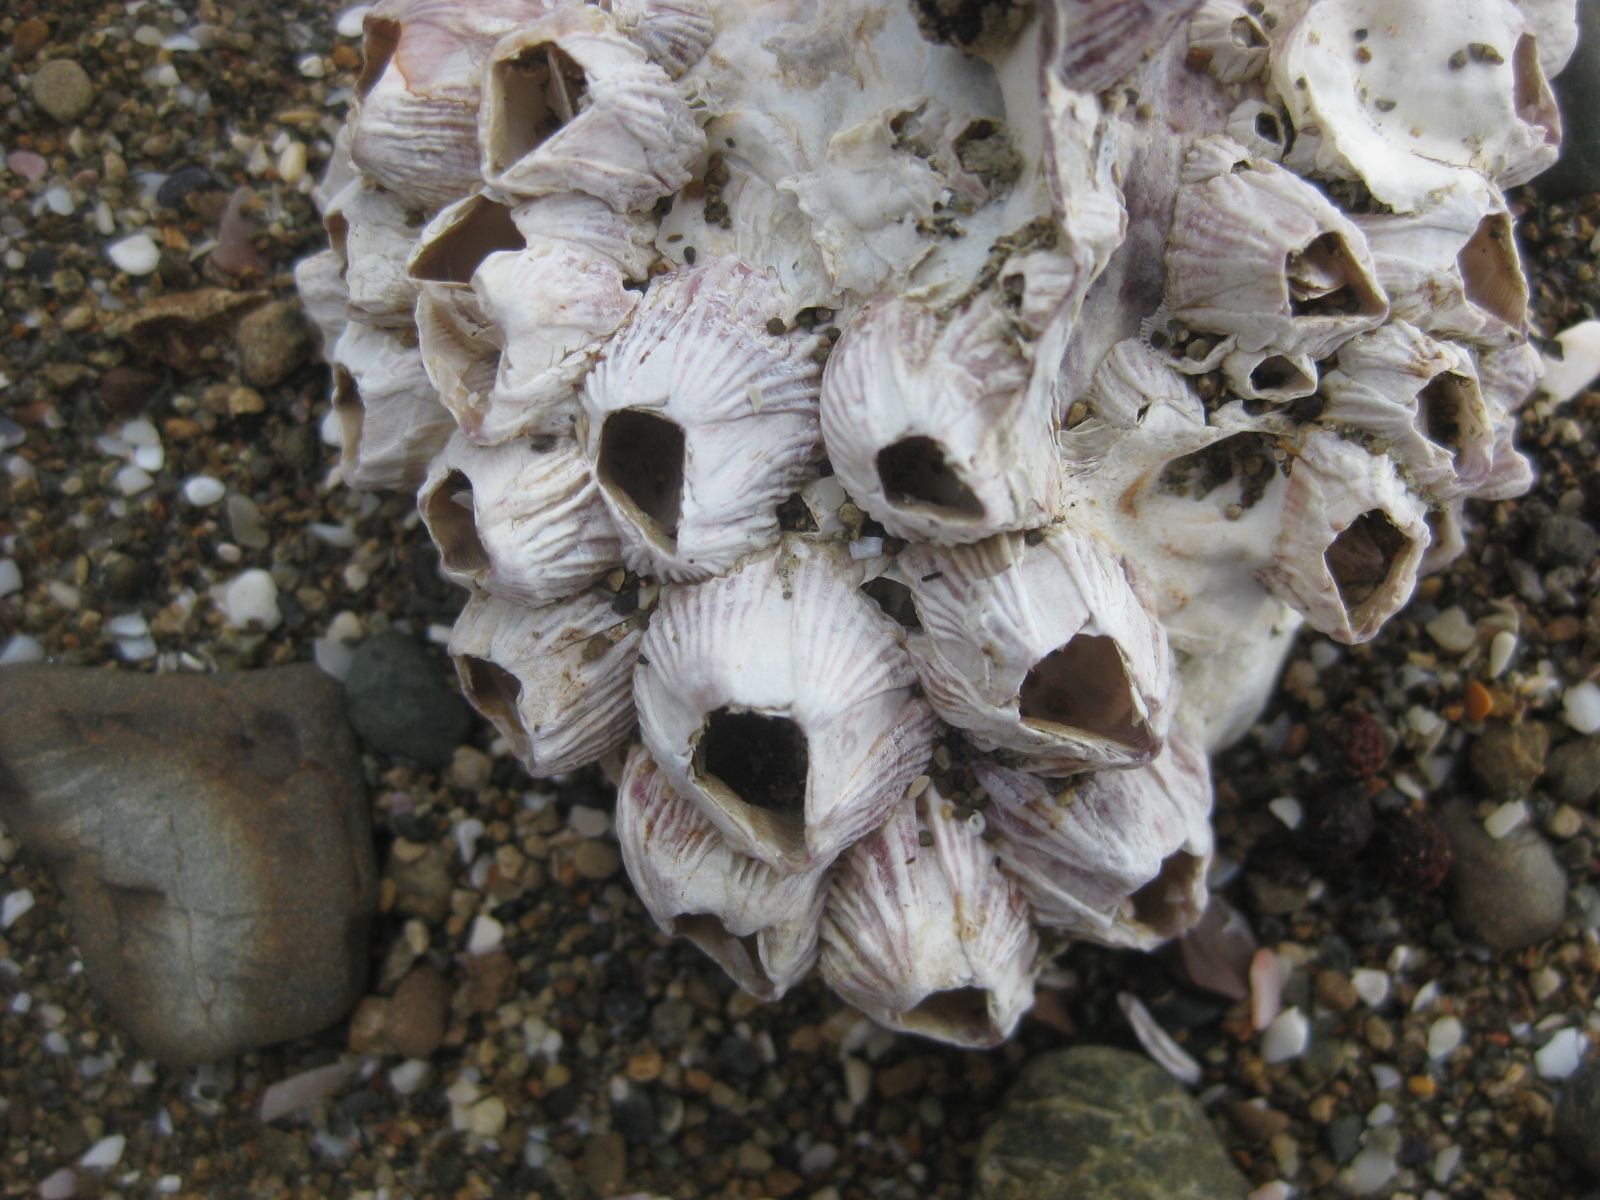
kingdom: Animalia
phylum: Arthropoda
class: Maxillopoda
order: Sessilia
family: Balanidae
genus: Balanus
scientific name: Balanus trigonus
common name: Triangle barnacle
